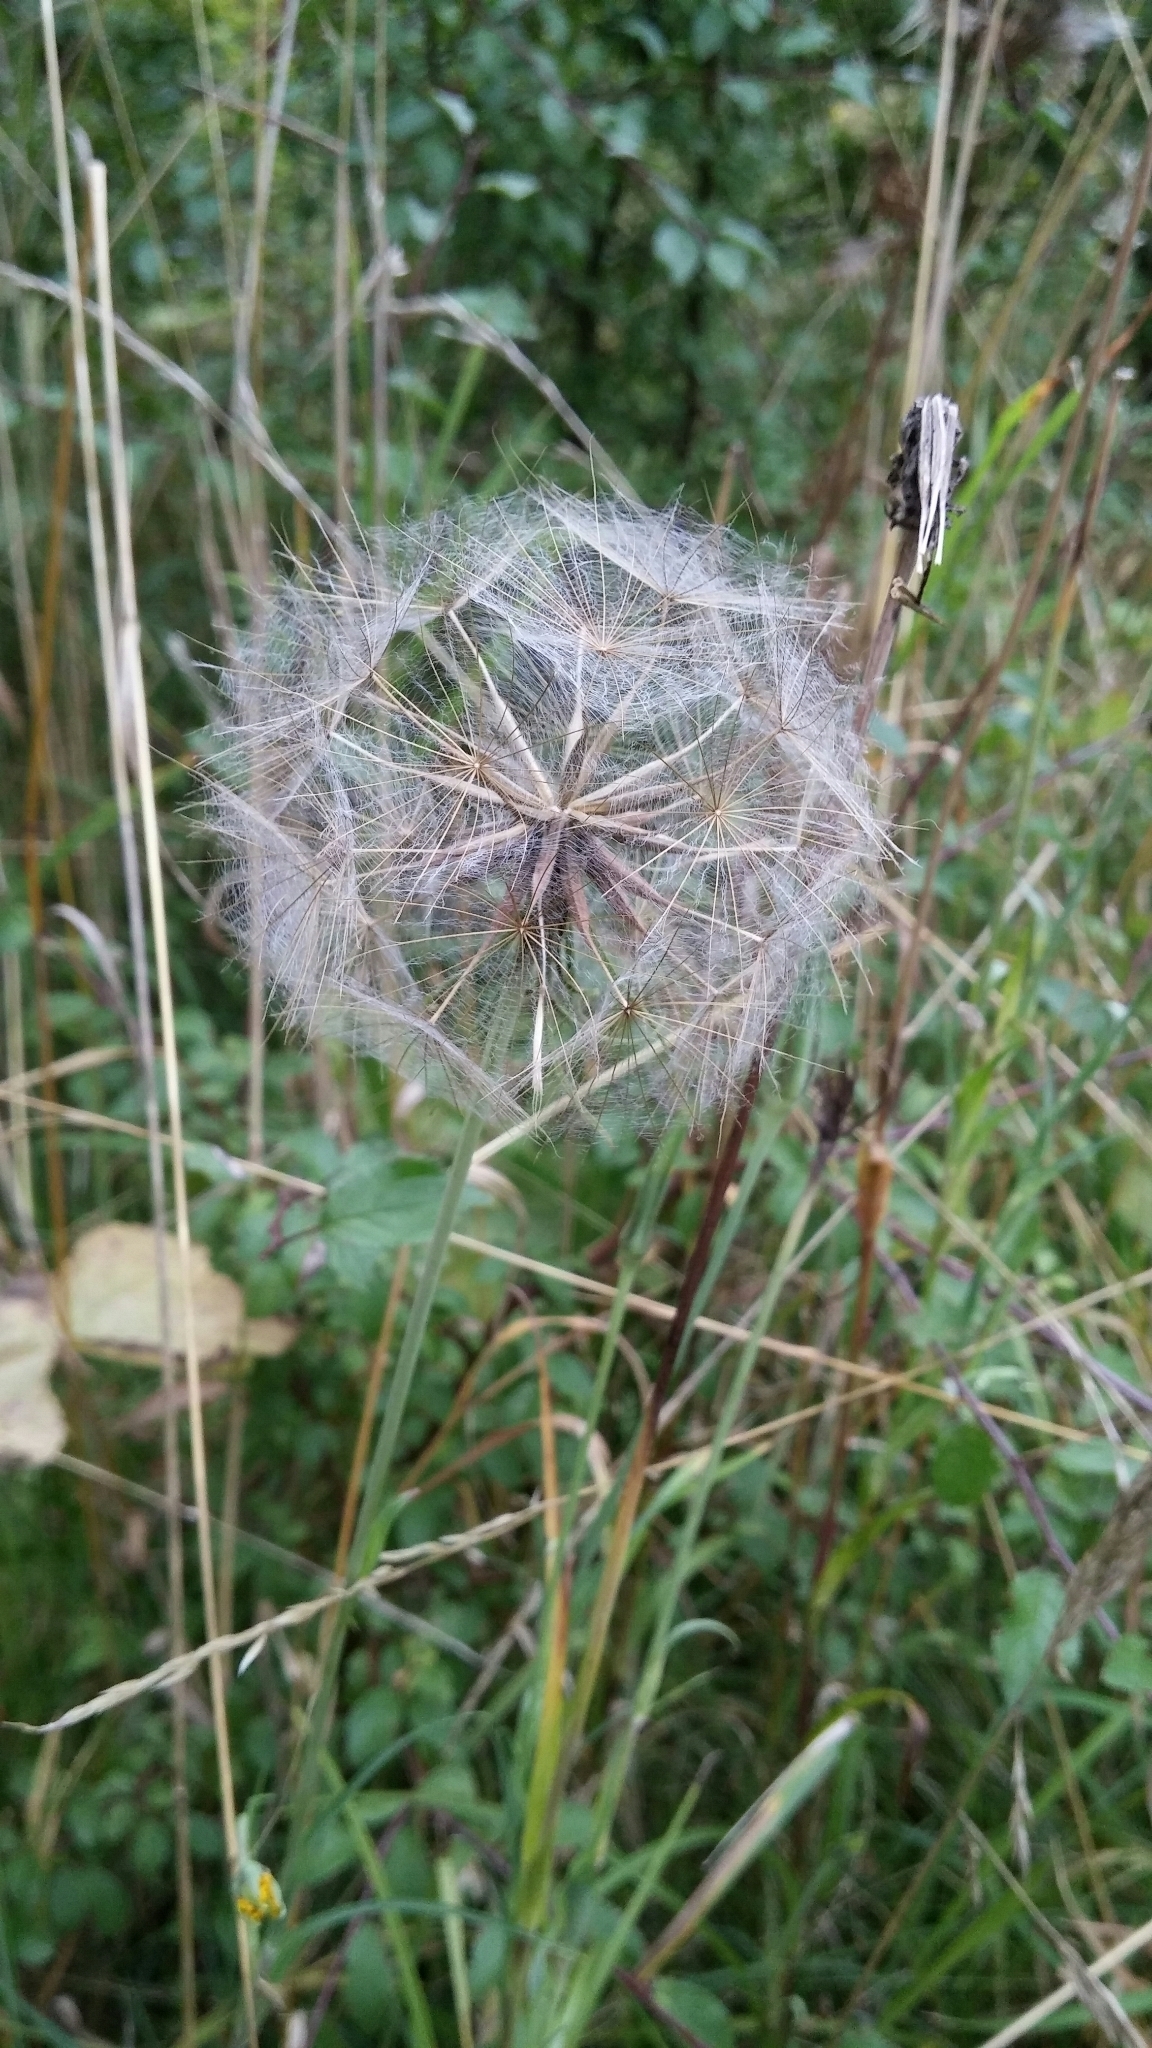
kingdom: Plantae
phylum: Tracheophyta
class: Magnoliopsida
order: Asterales
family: Asteraceae
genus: Tragopogon
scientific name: Tragopogon minor
